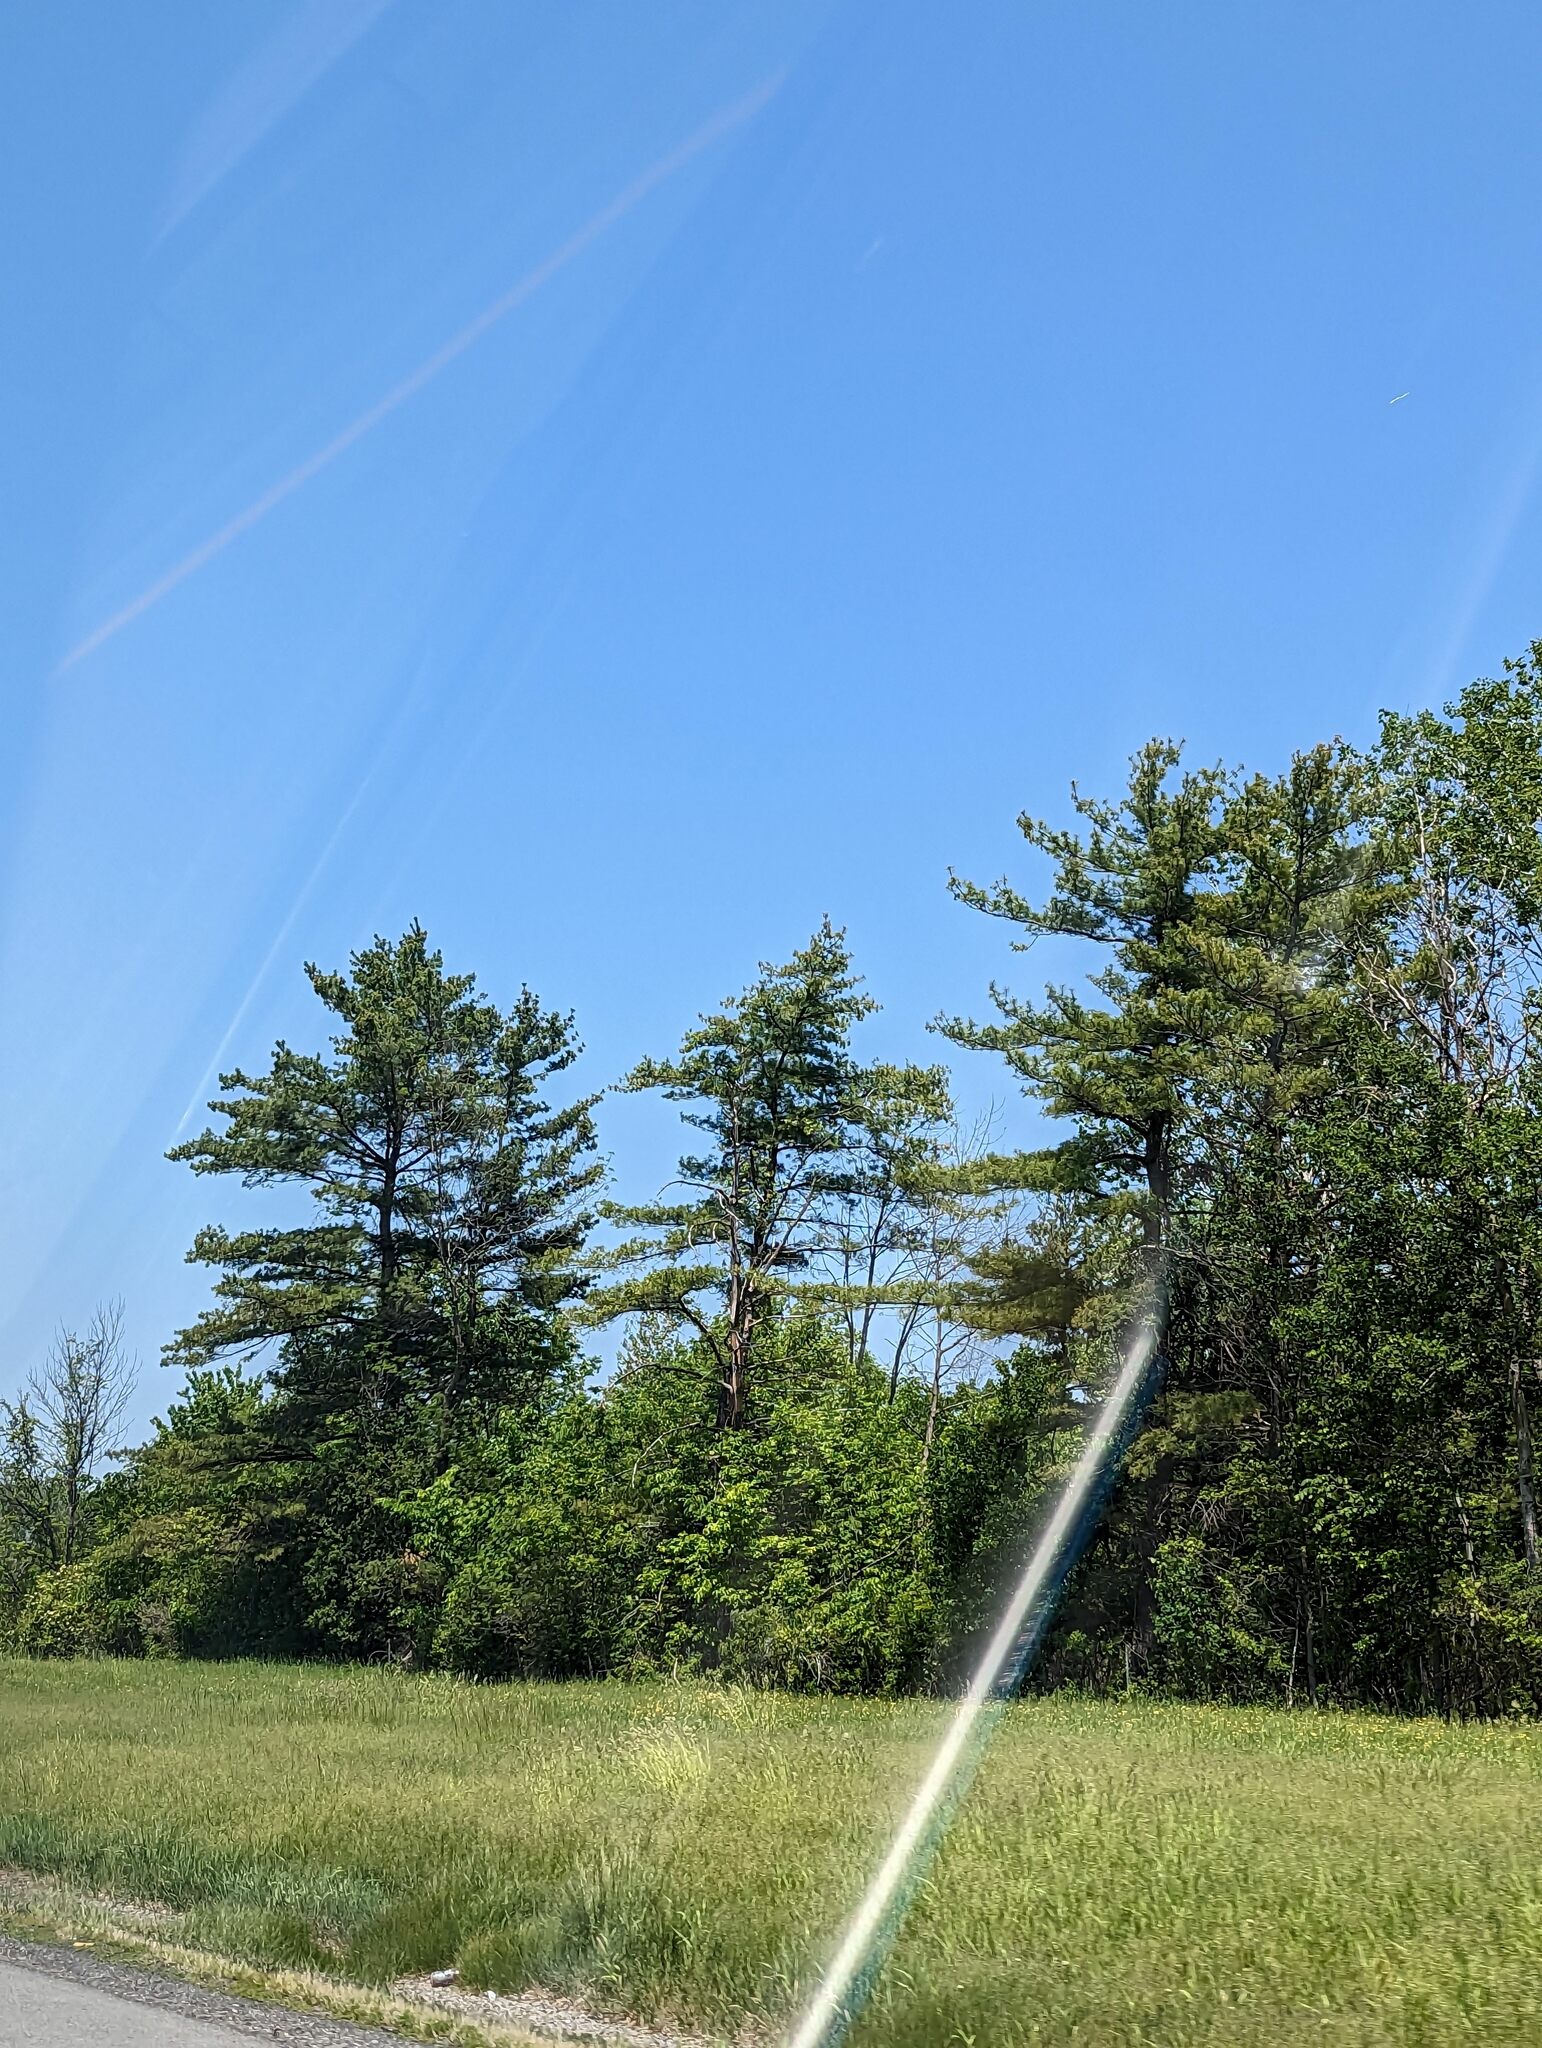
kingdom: Plantae
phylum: Tracheophyta
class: Pinopsida
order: Pinales
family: Pinaceae
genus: Pinus
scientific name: Pinus strobus
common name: Weymouth pine
